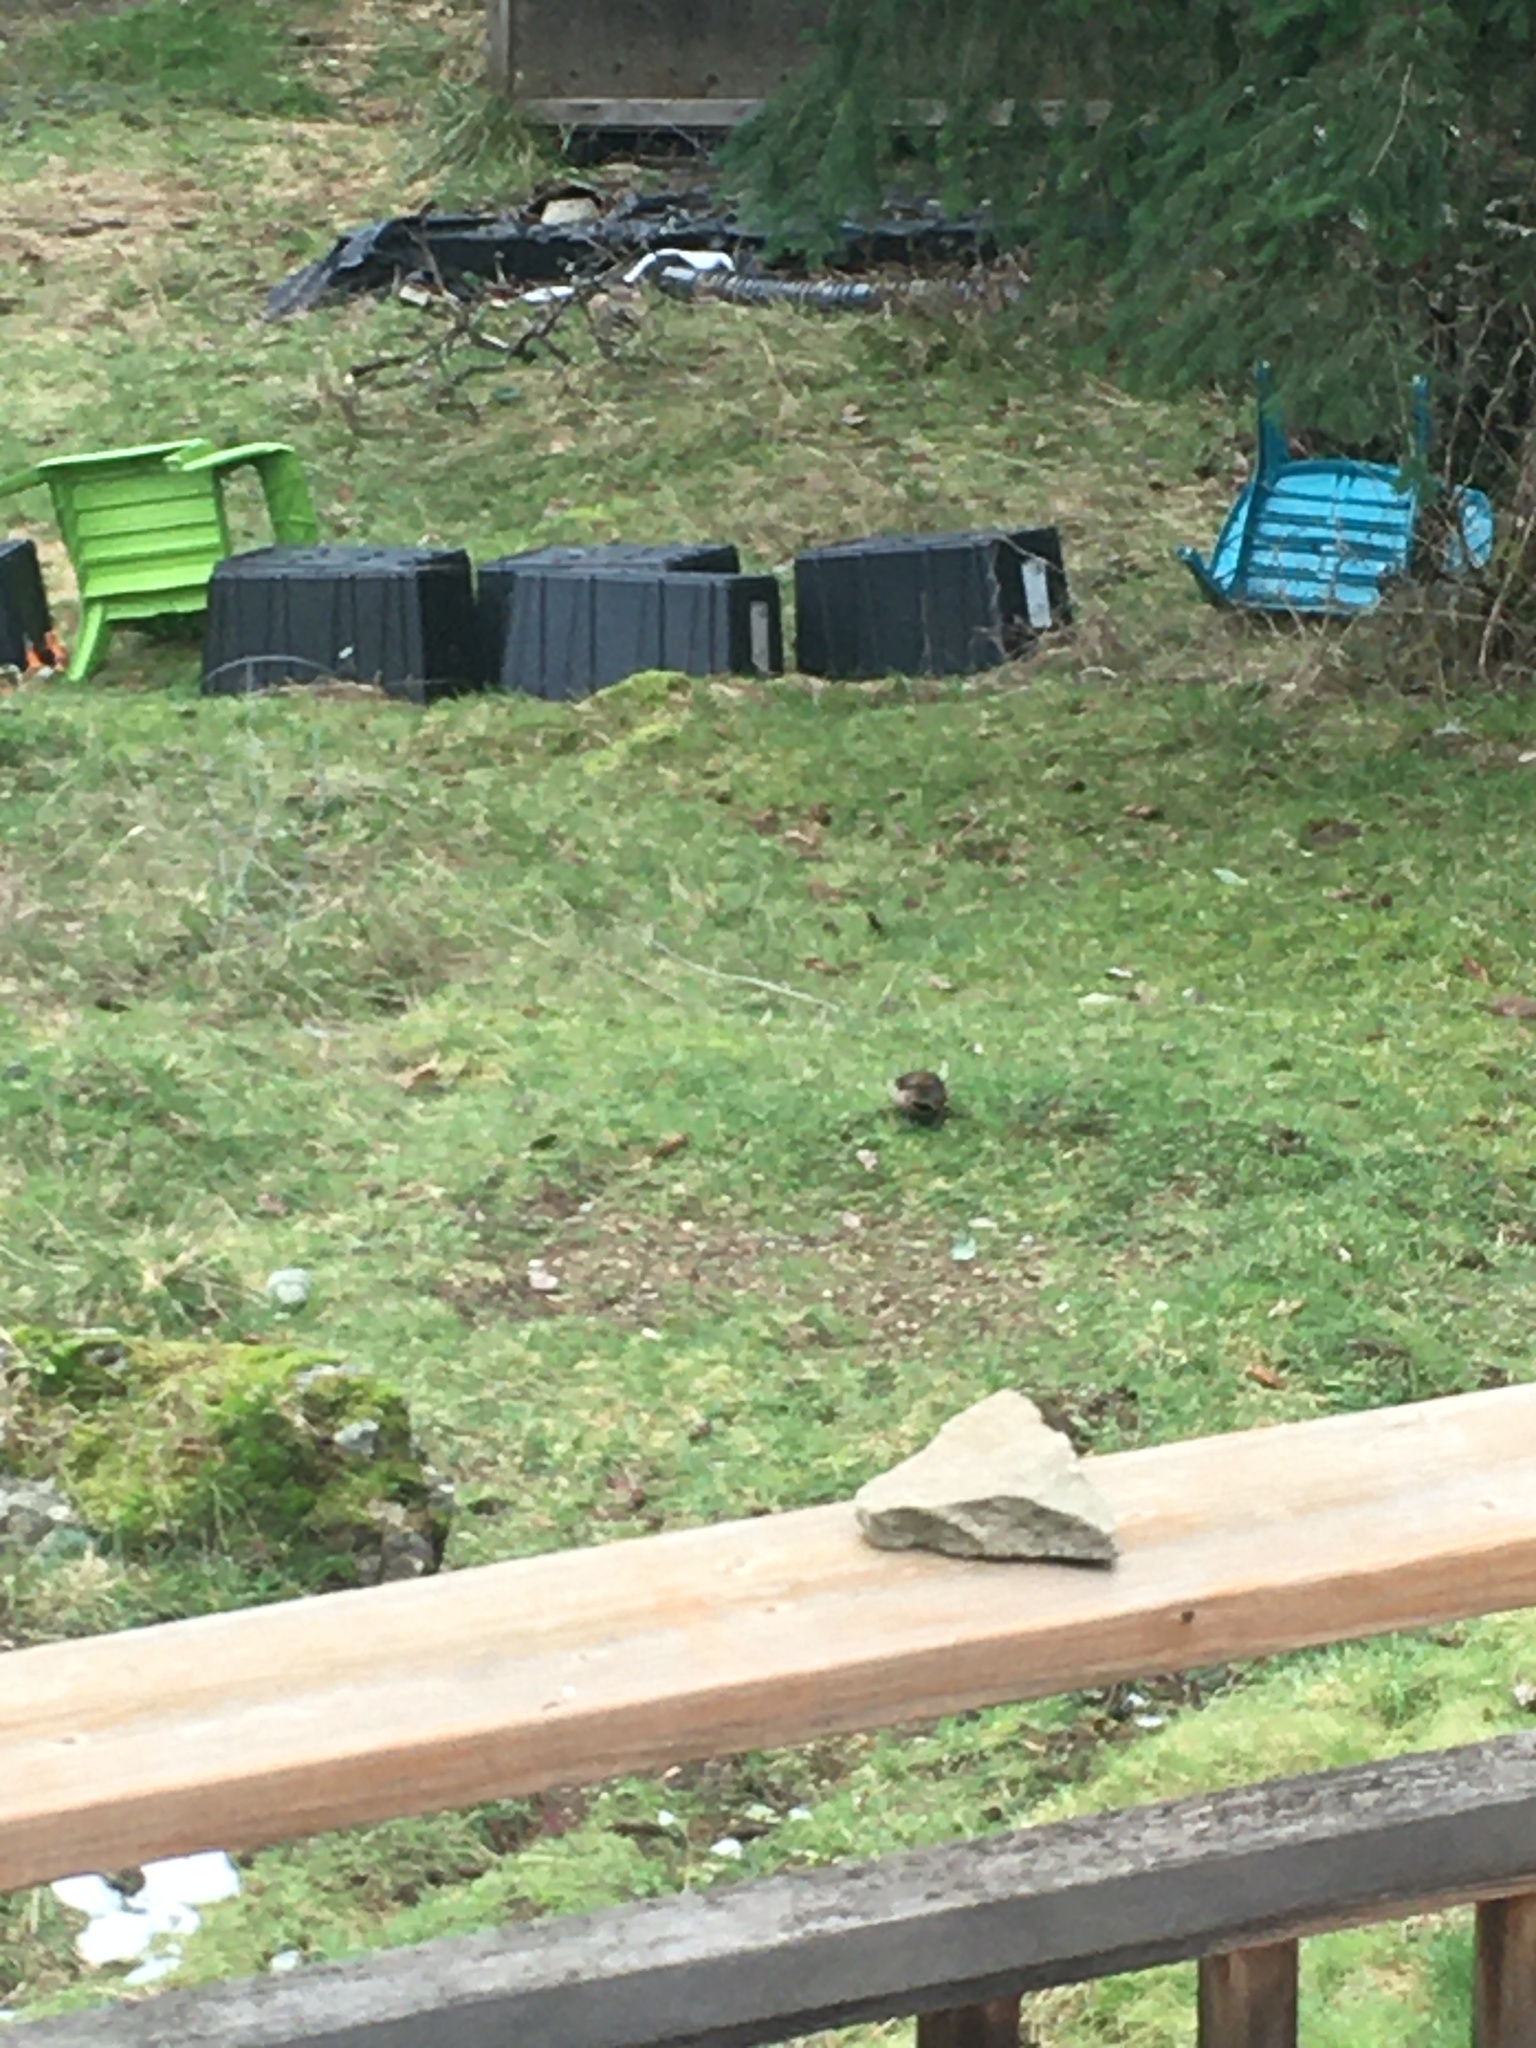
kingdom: Animalia
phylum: Chordata
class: Aves
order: Piciformes
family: Picidae
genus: Colaptes
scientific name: Colaptes auratus
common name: Northern flicker
